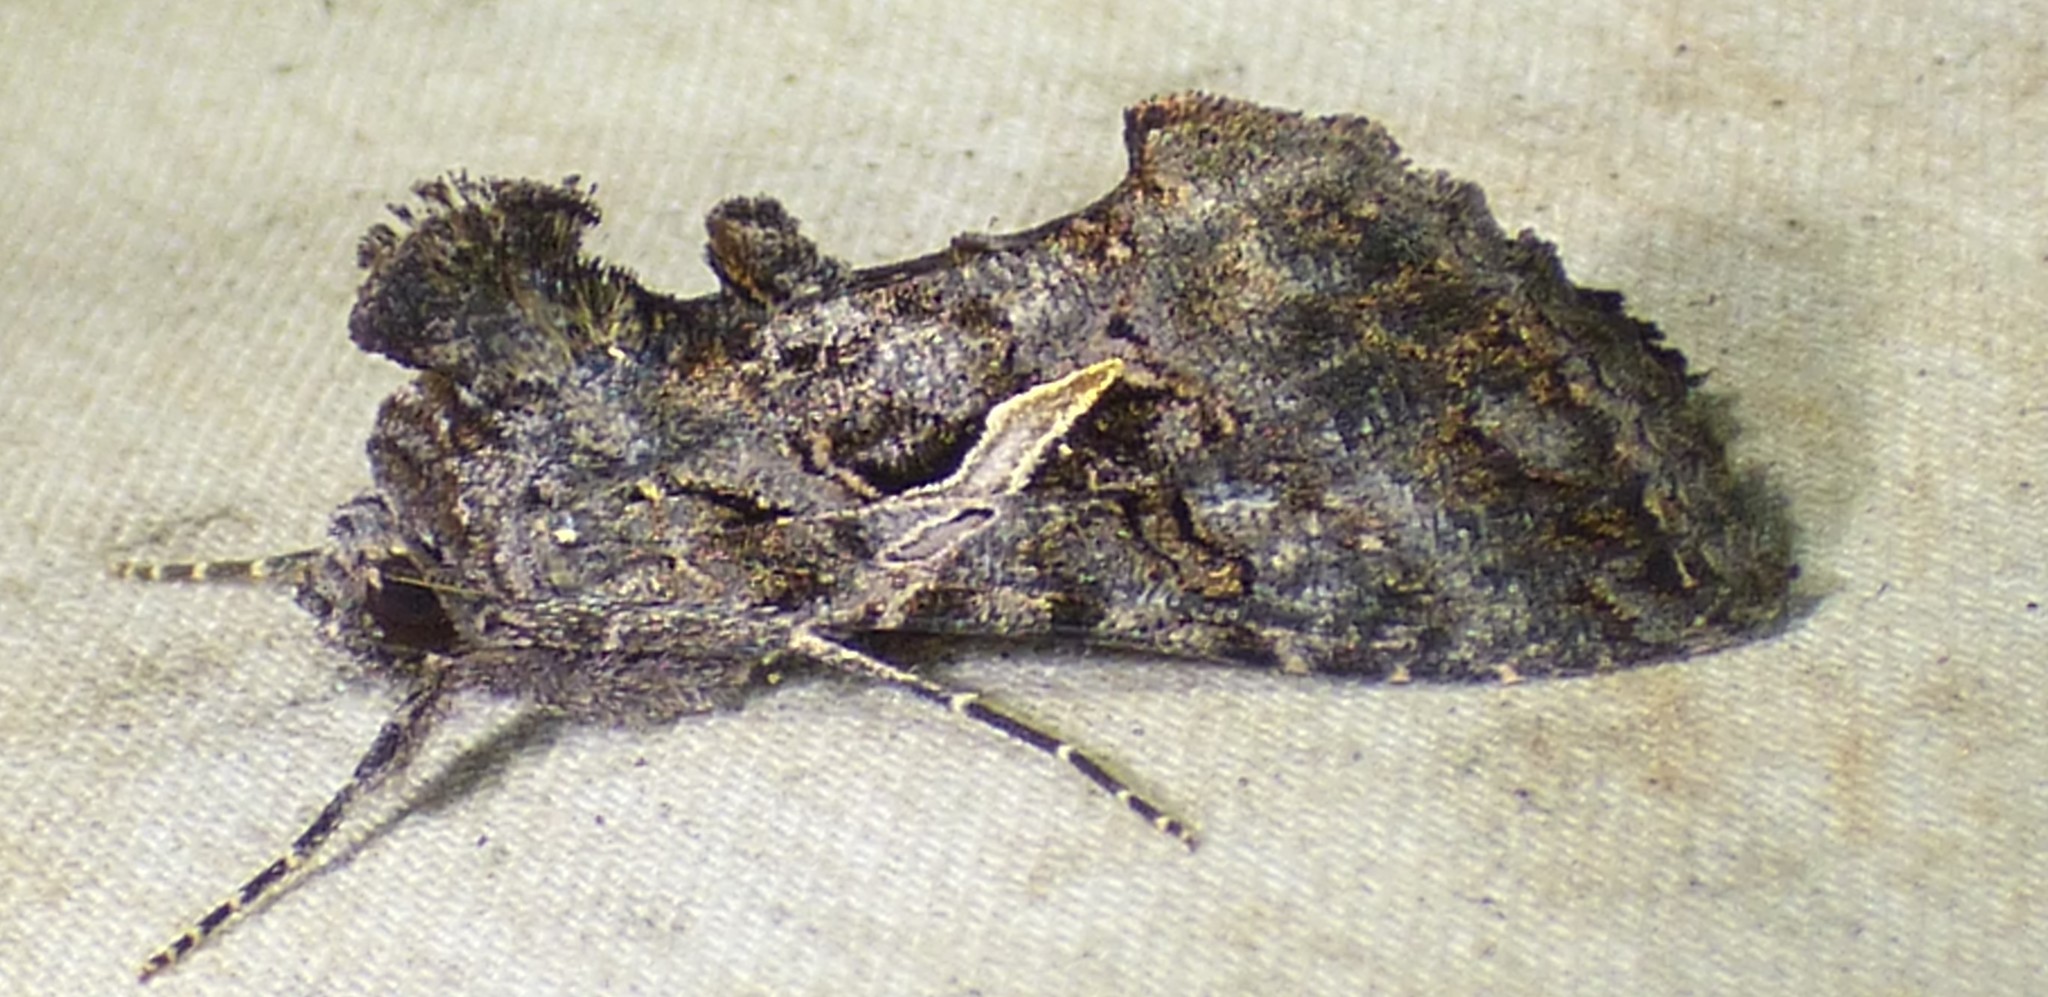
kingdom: Animalia
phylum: Arthropoda
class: Insecta
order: Lepidoptera
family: Noctuidae
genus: Ctenoplusia
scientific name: Ctenoplusia oxygramma
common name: Sharp-stigma looper moth
